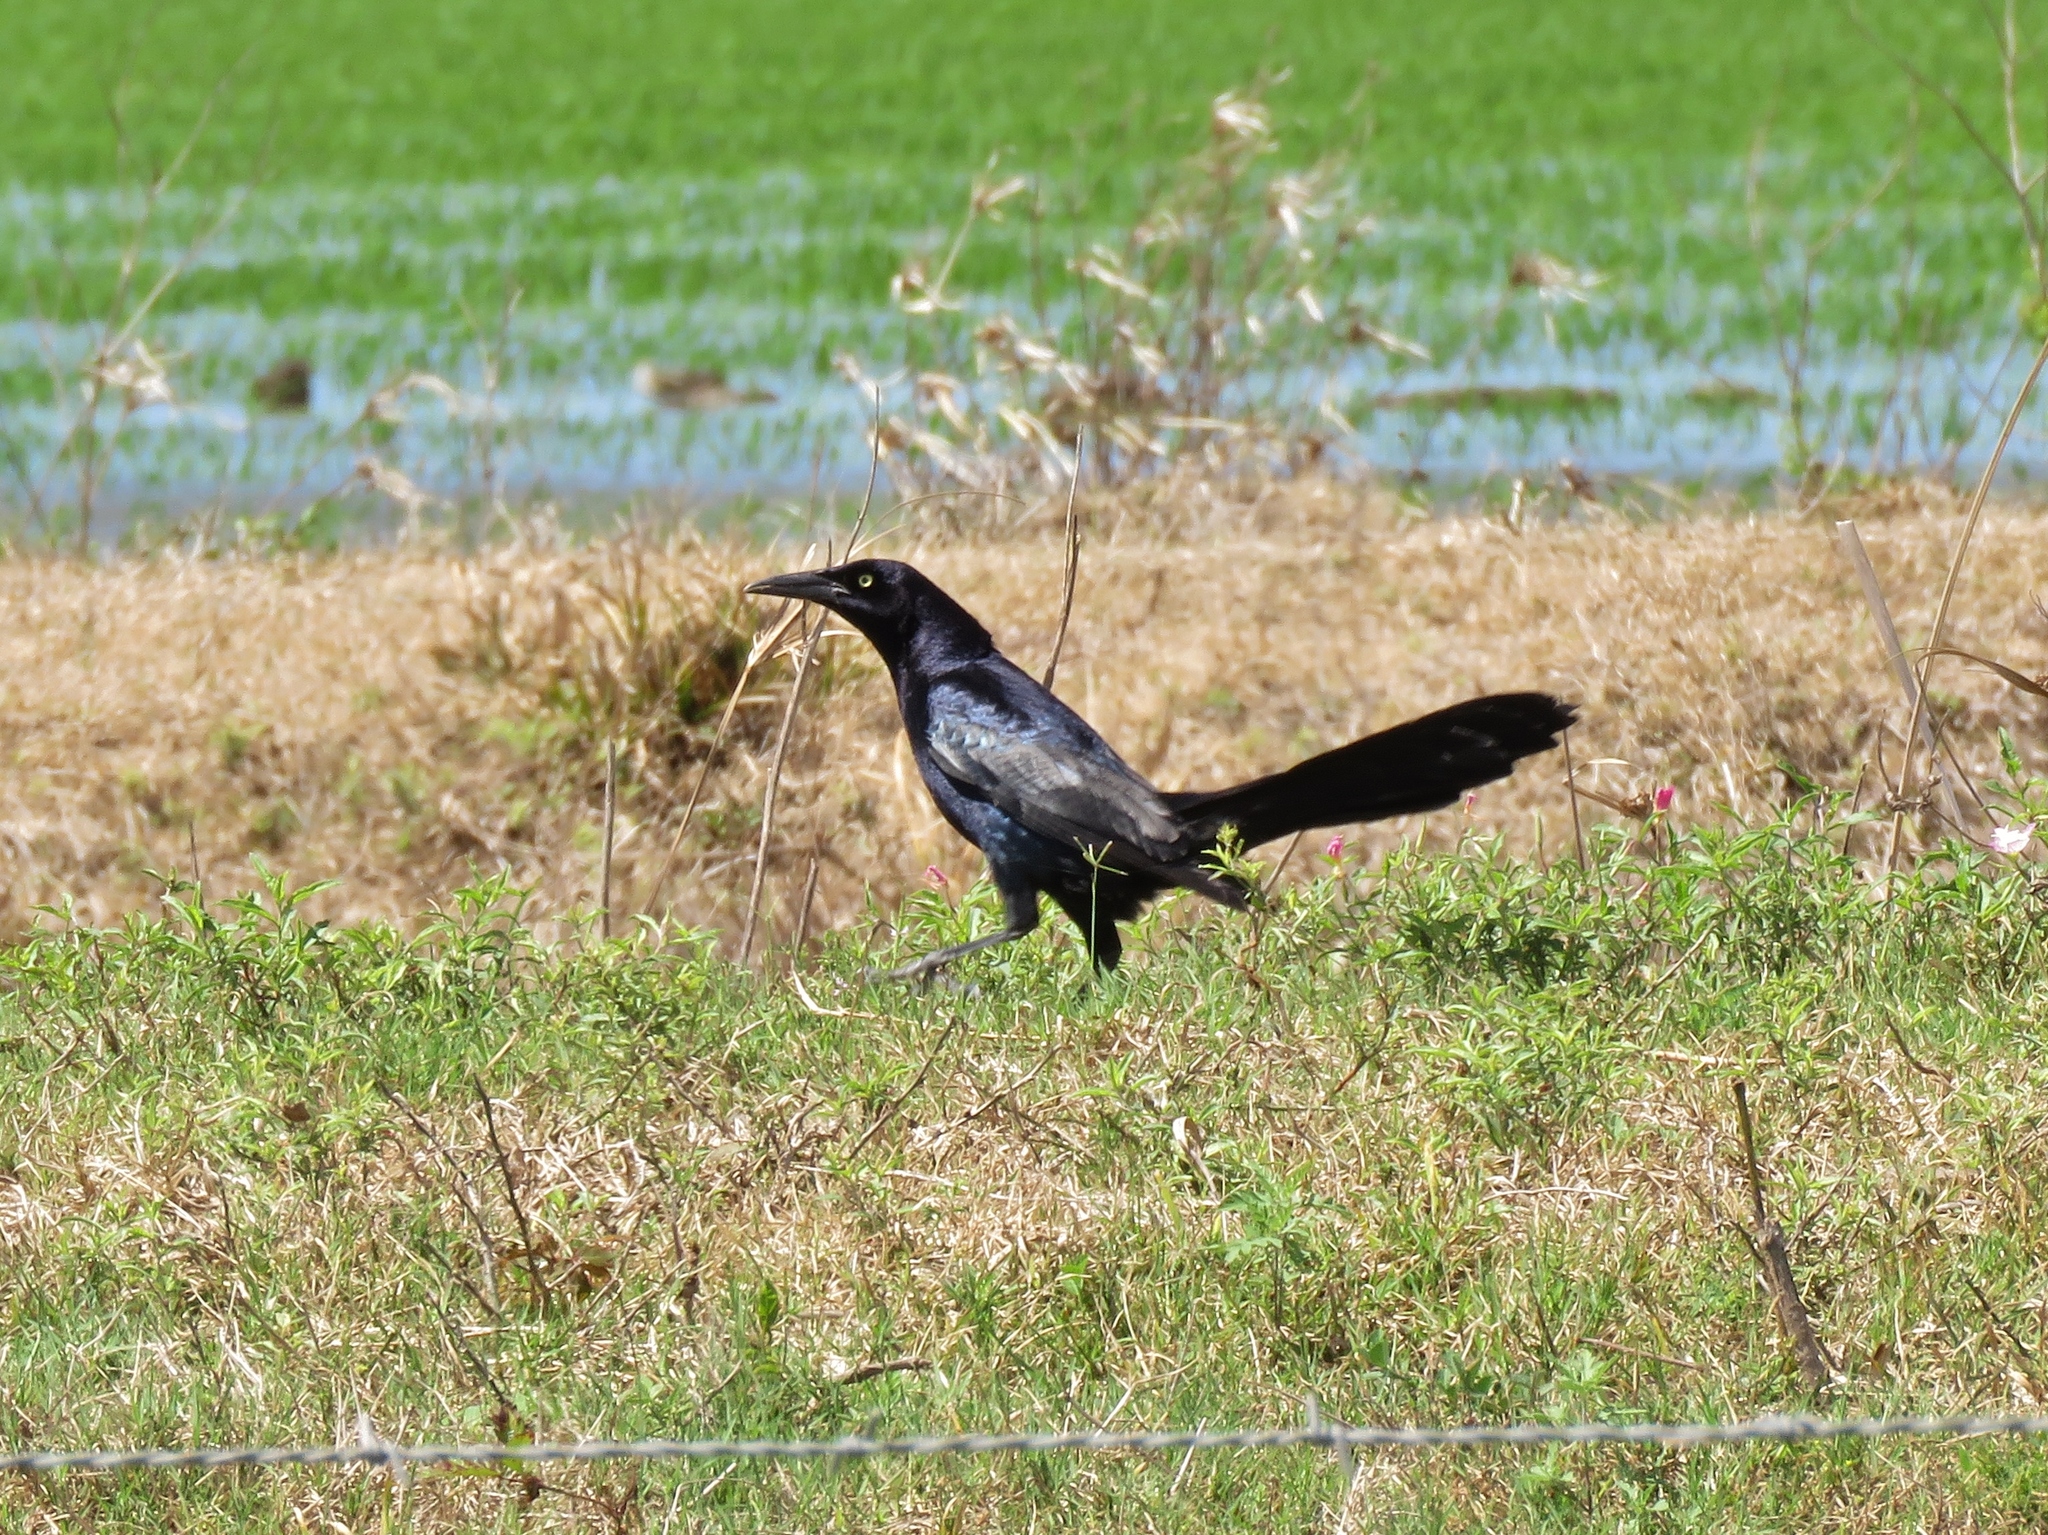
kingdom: Animalia
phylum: Chordata
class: Aves
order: Passeriformes
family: Icteridae
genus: Quiscalus
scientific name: Quiscalus mexicanus
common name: Great-tailed grackle
